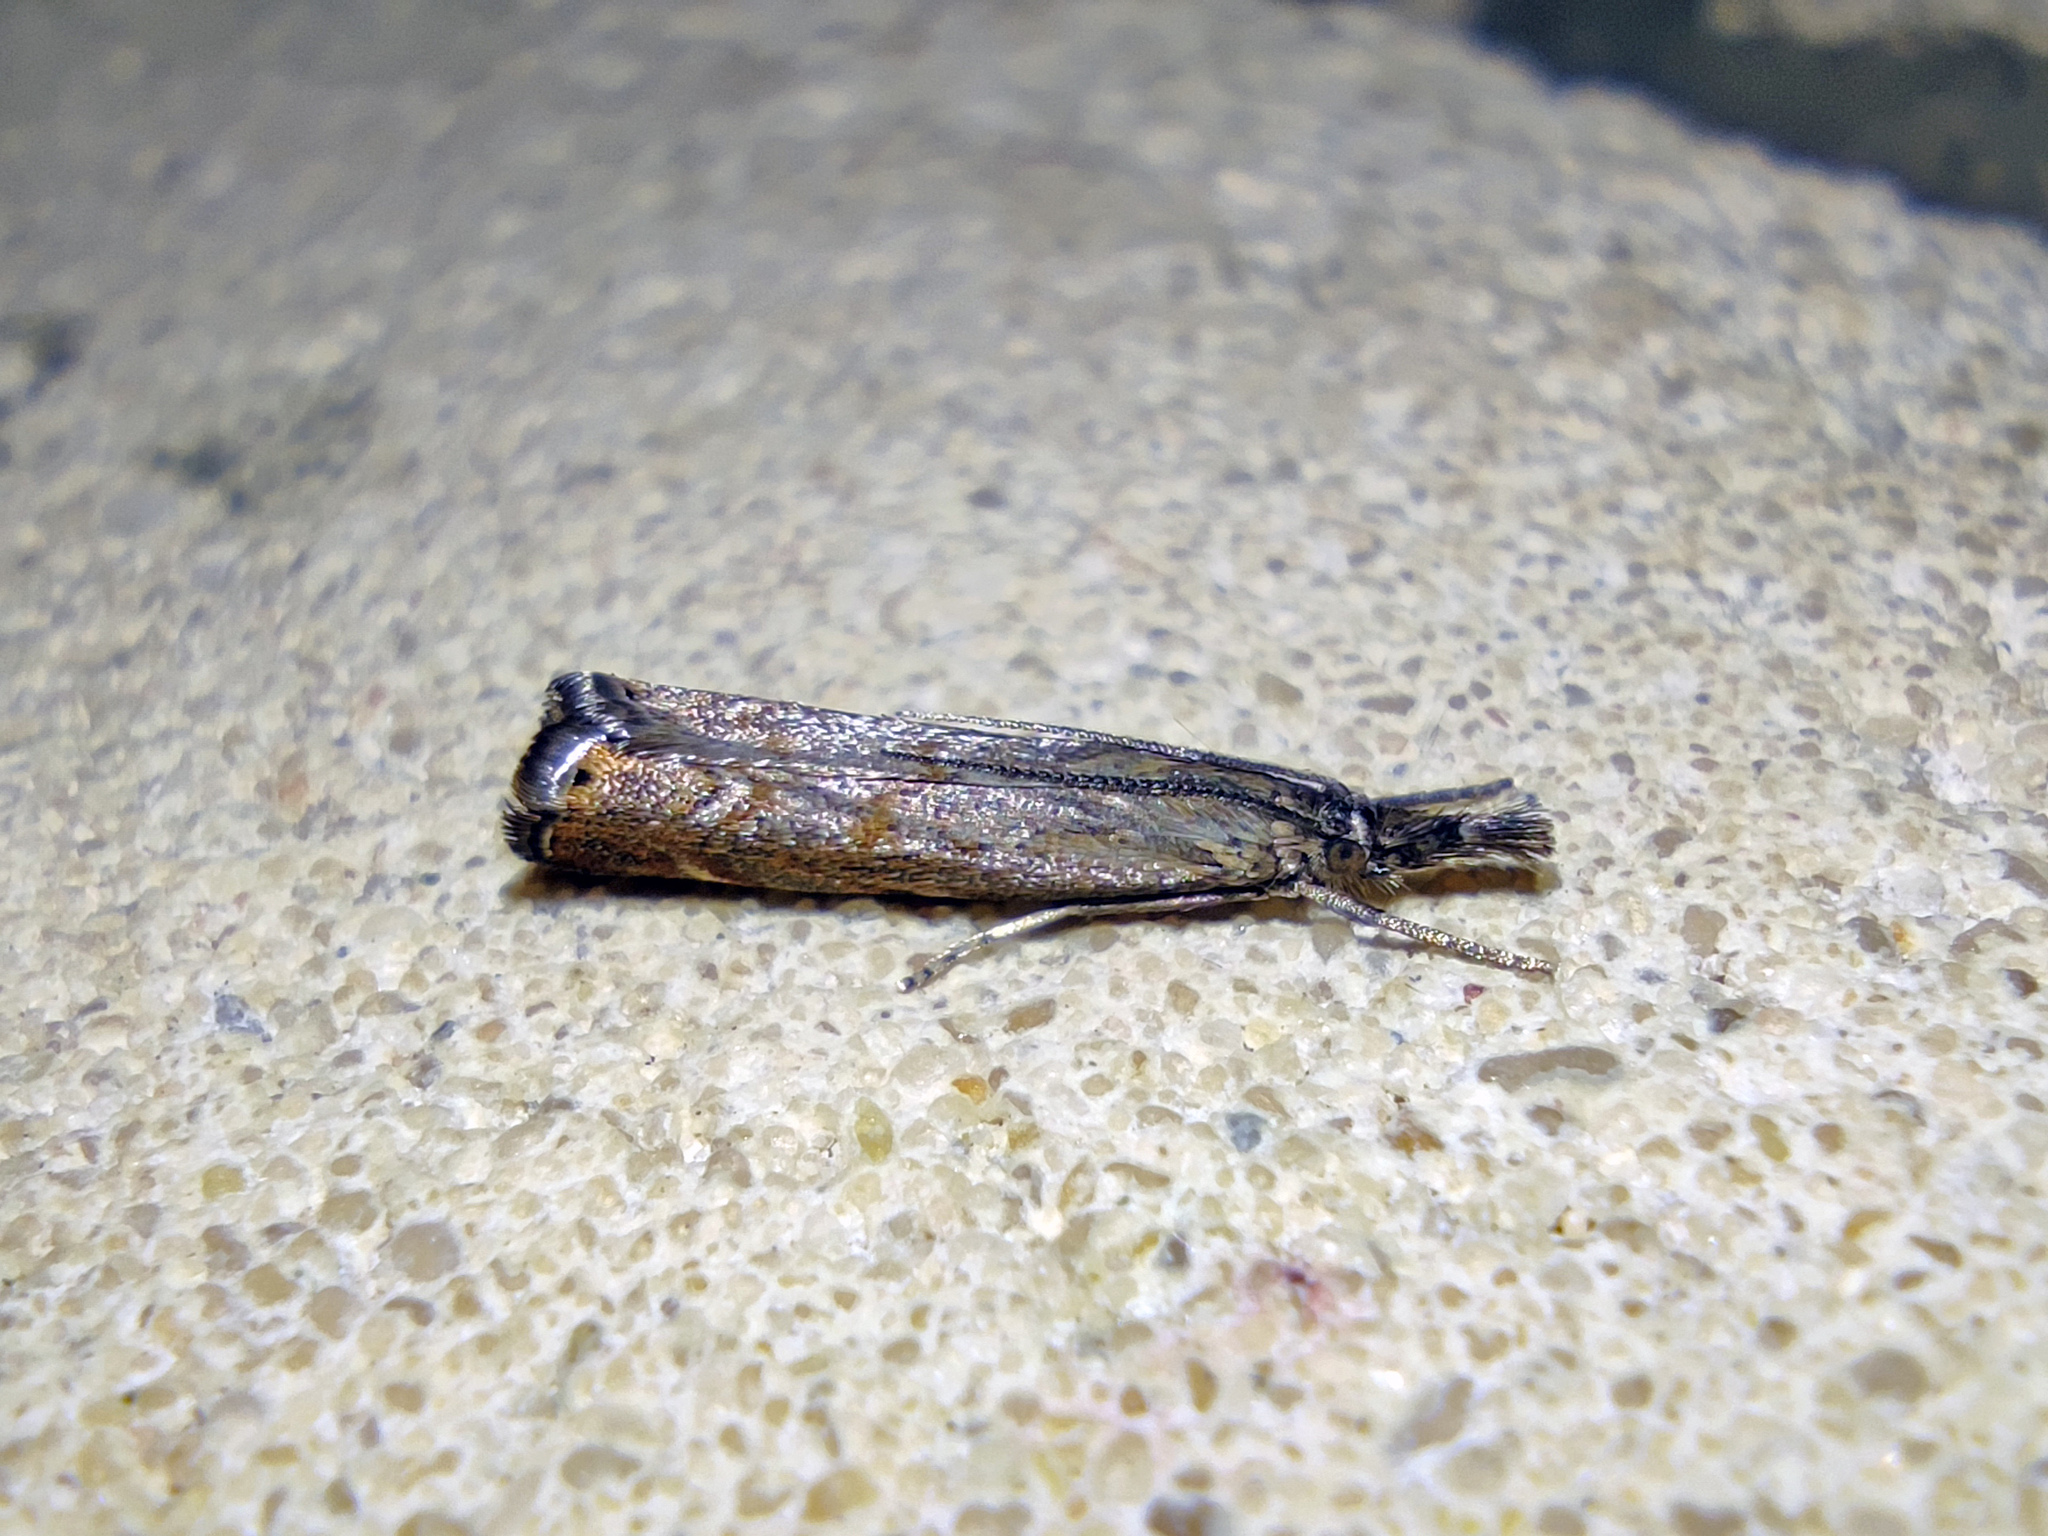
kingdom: Animalia
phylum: Arthropoda
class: Insecta
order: Lepidoptera
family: Crambidae
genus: Platytes
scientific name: Platytes cerusella
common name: Little grass-veneer
